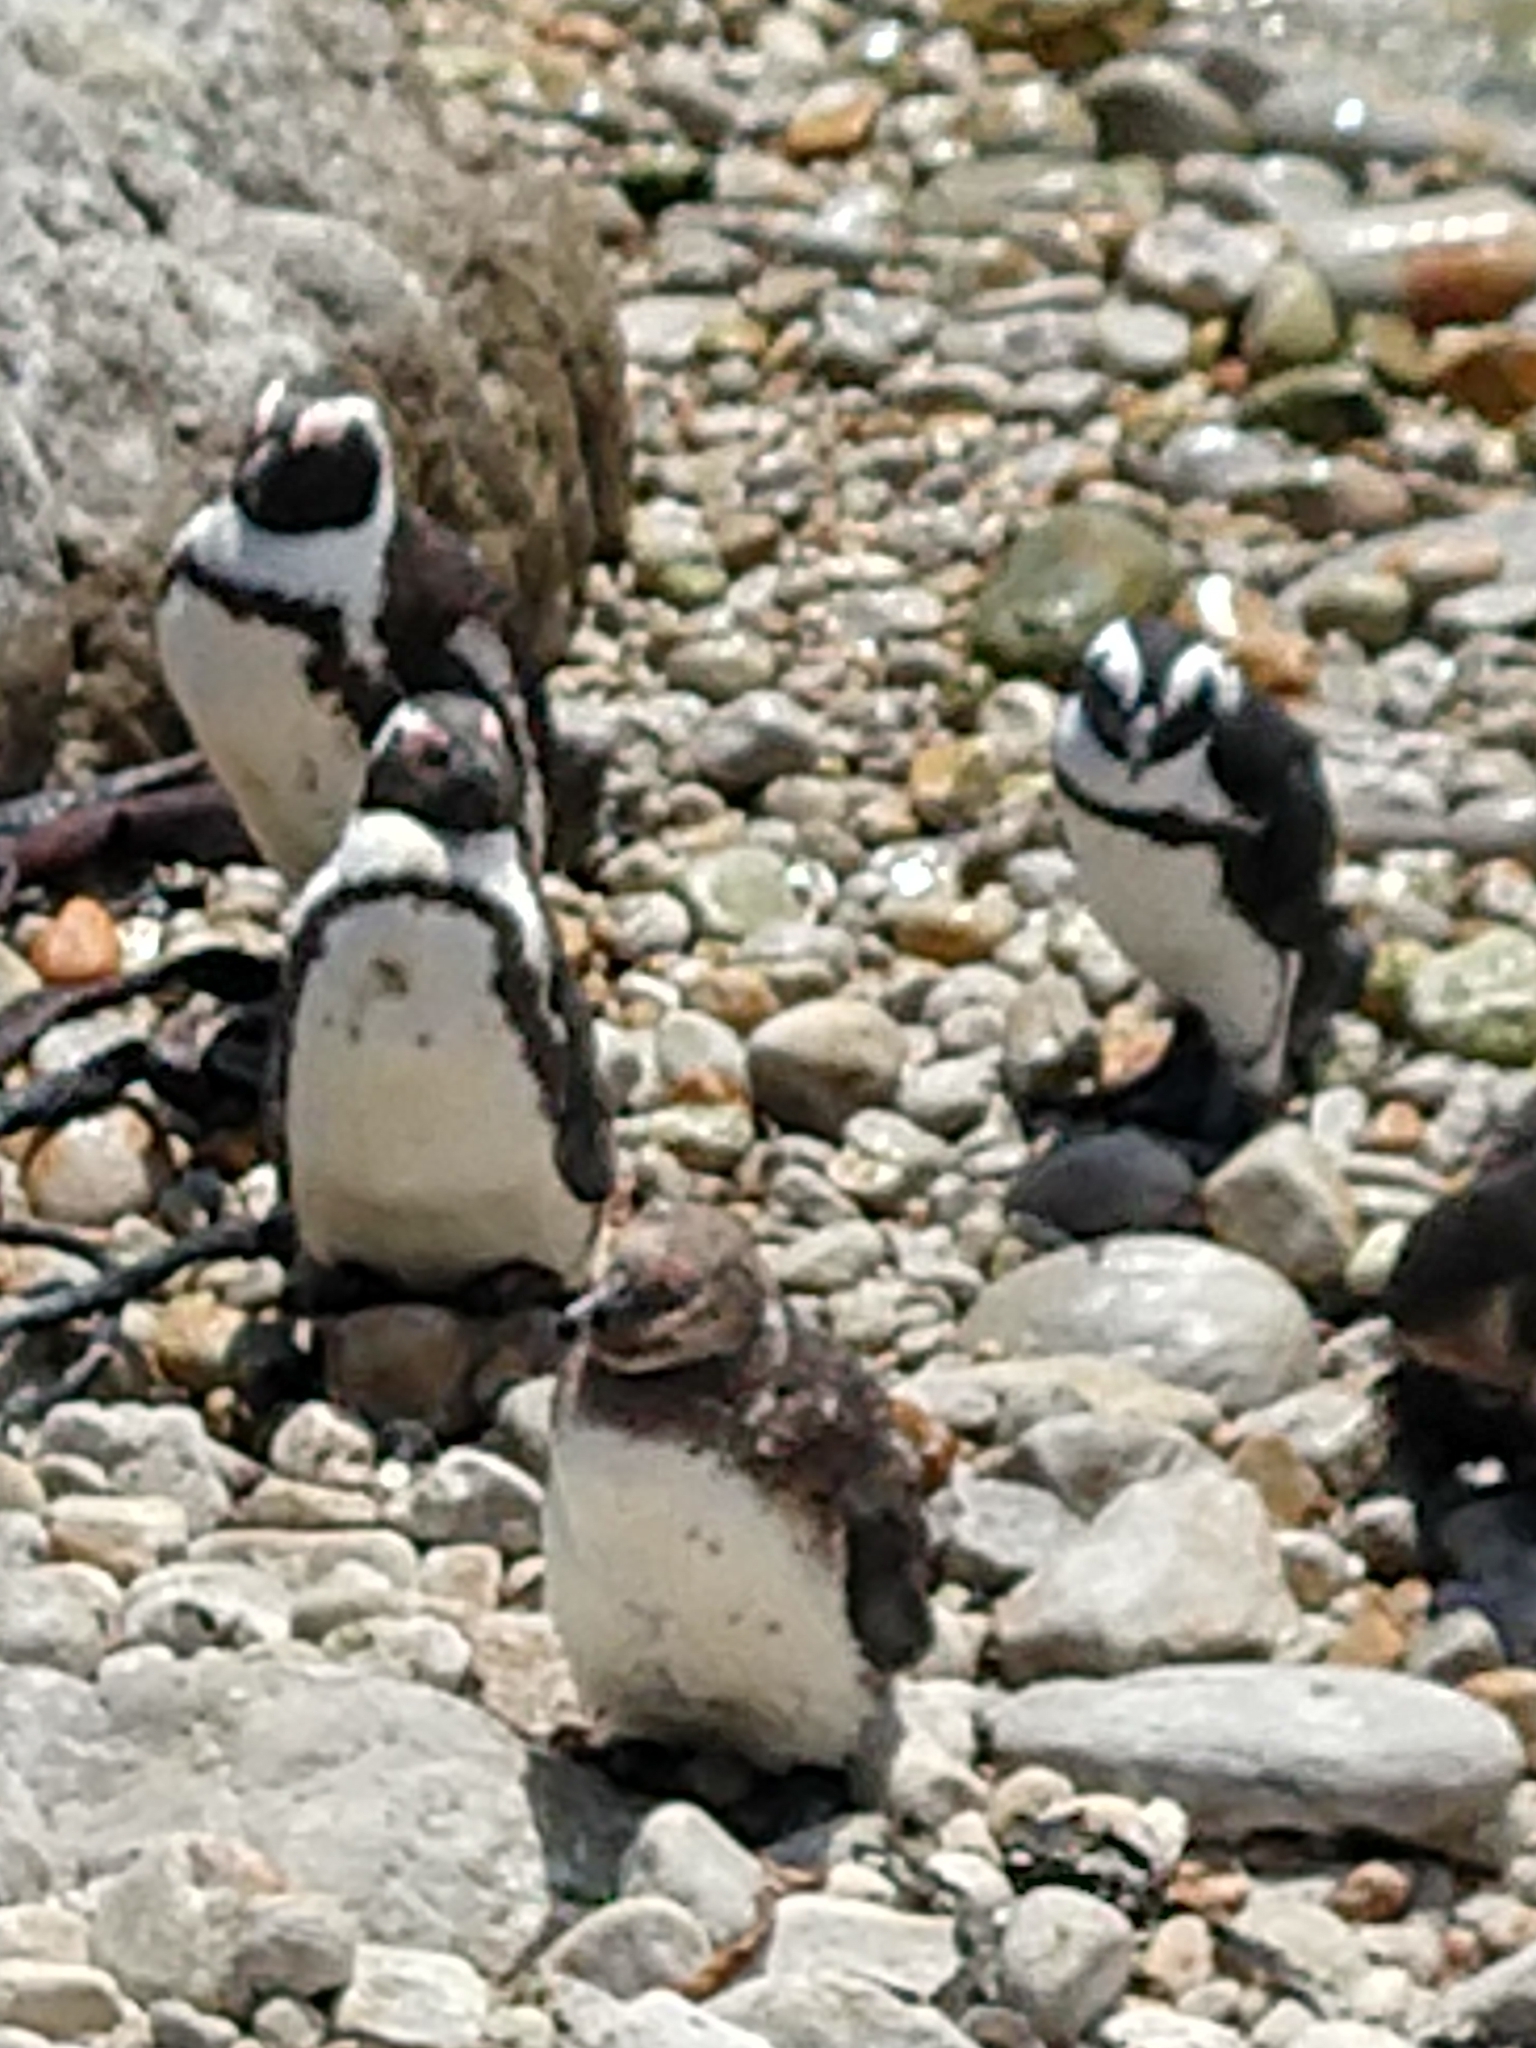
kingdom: Animalia
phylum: Chordata
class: Aves
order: Sphenisciformes
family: Spheniscidae
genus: Spheniscus
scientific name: Spheniscus demersus
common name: African penguin
